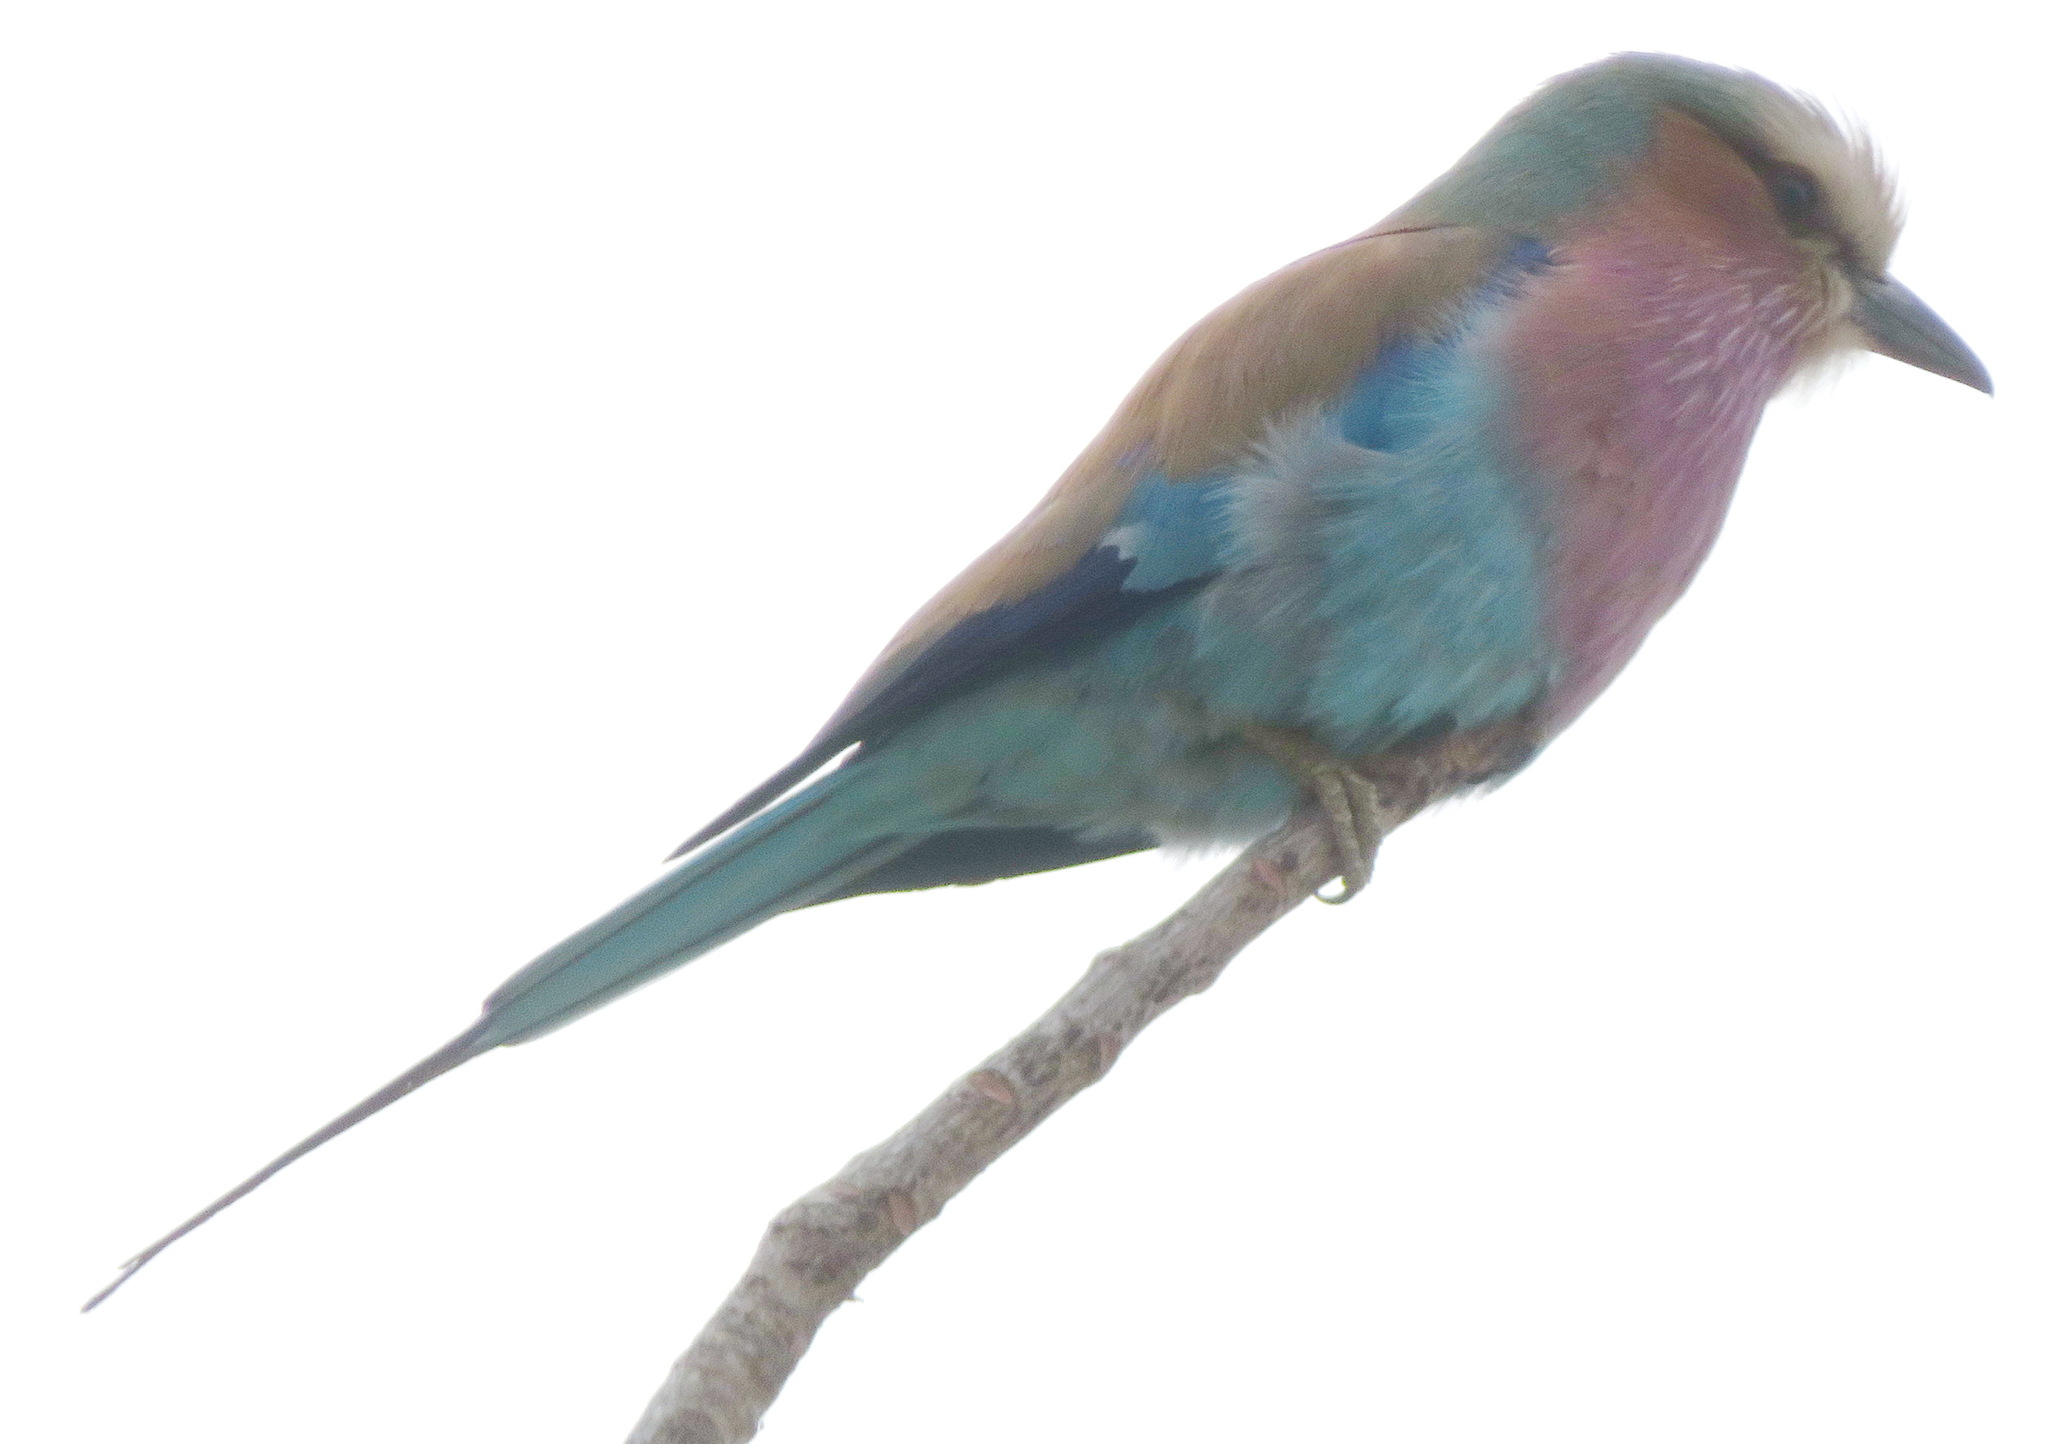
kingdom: Animalia
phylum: Chordata
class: Aves
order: Coraciiformes
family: Coraciidae
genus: Coracias
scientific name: Coracias caudatus
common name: Lilac-breasted roller
